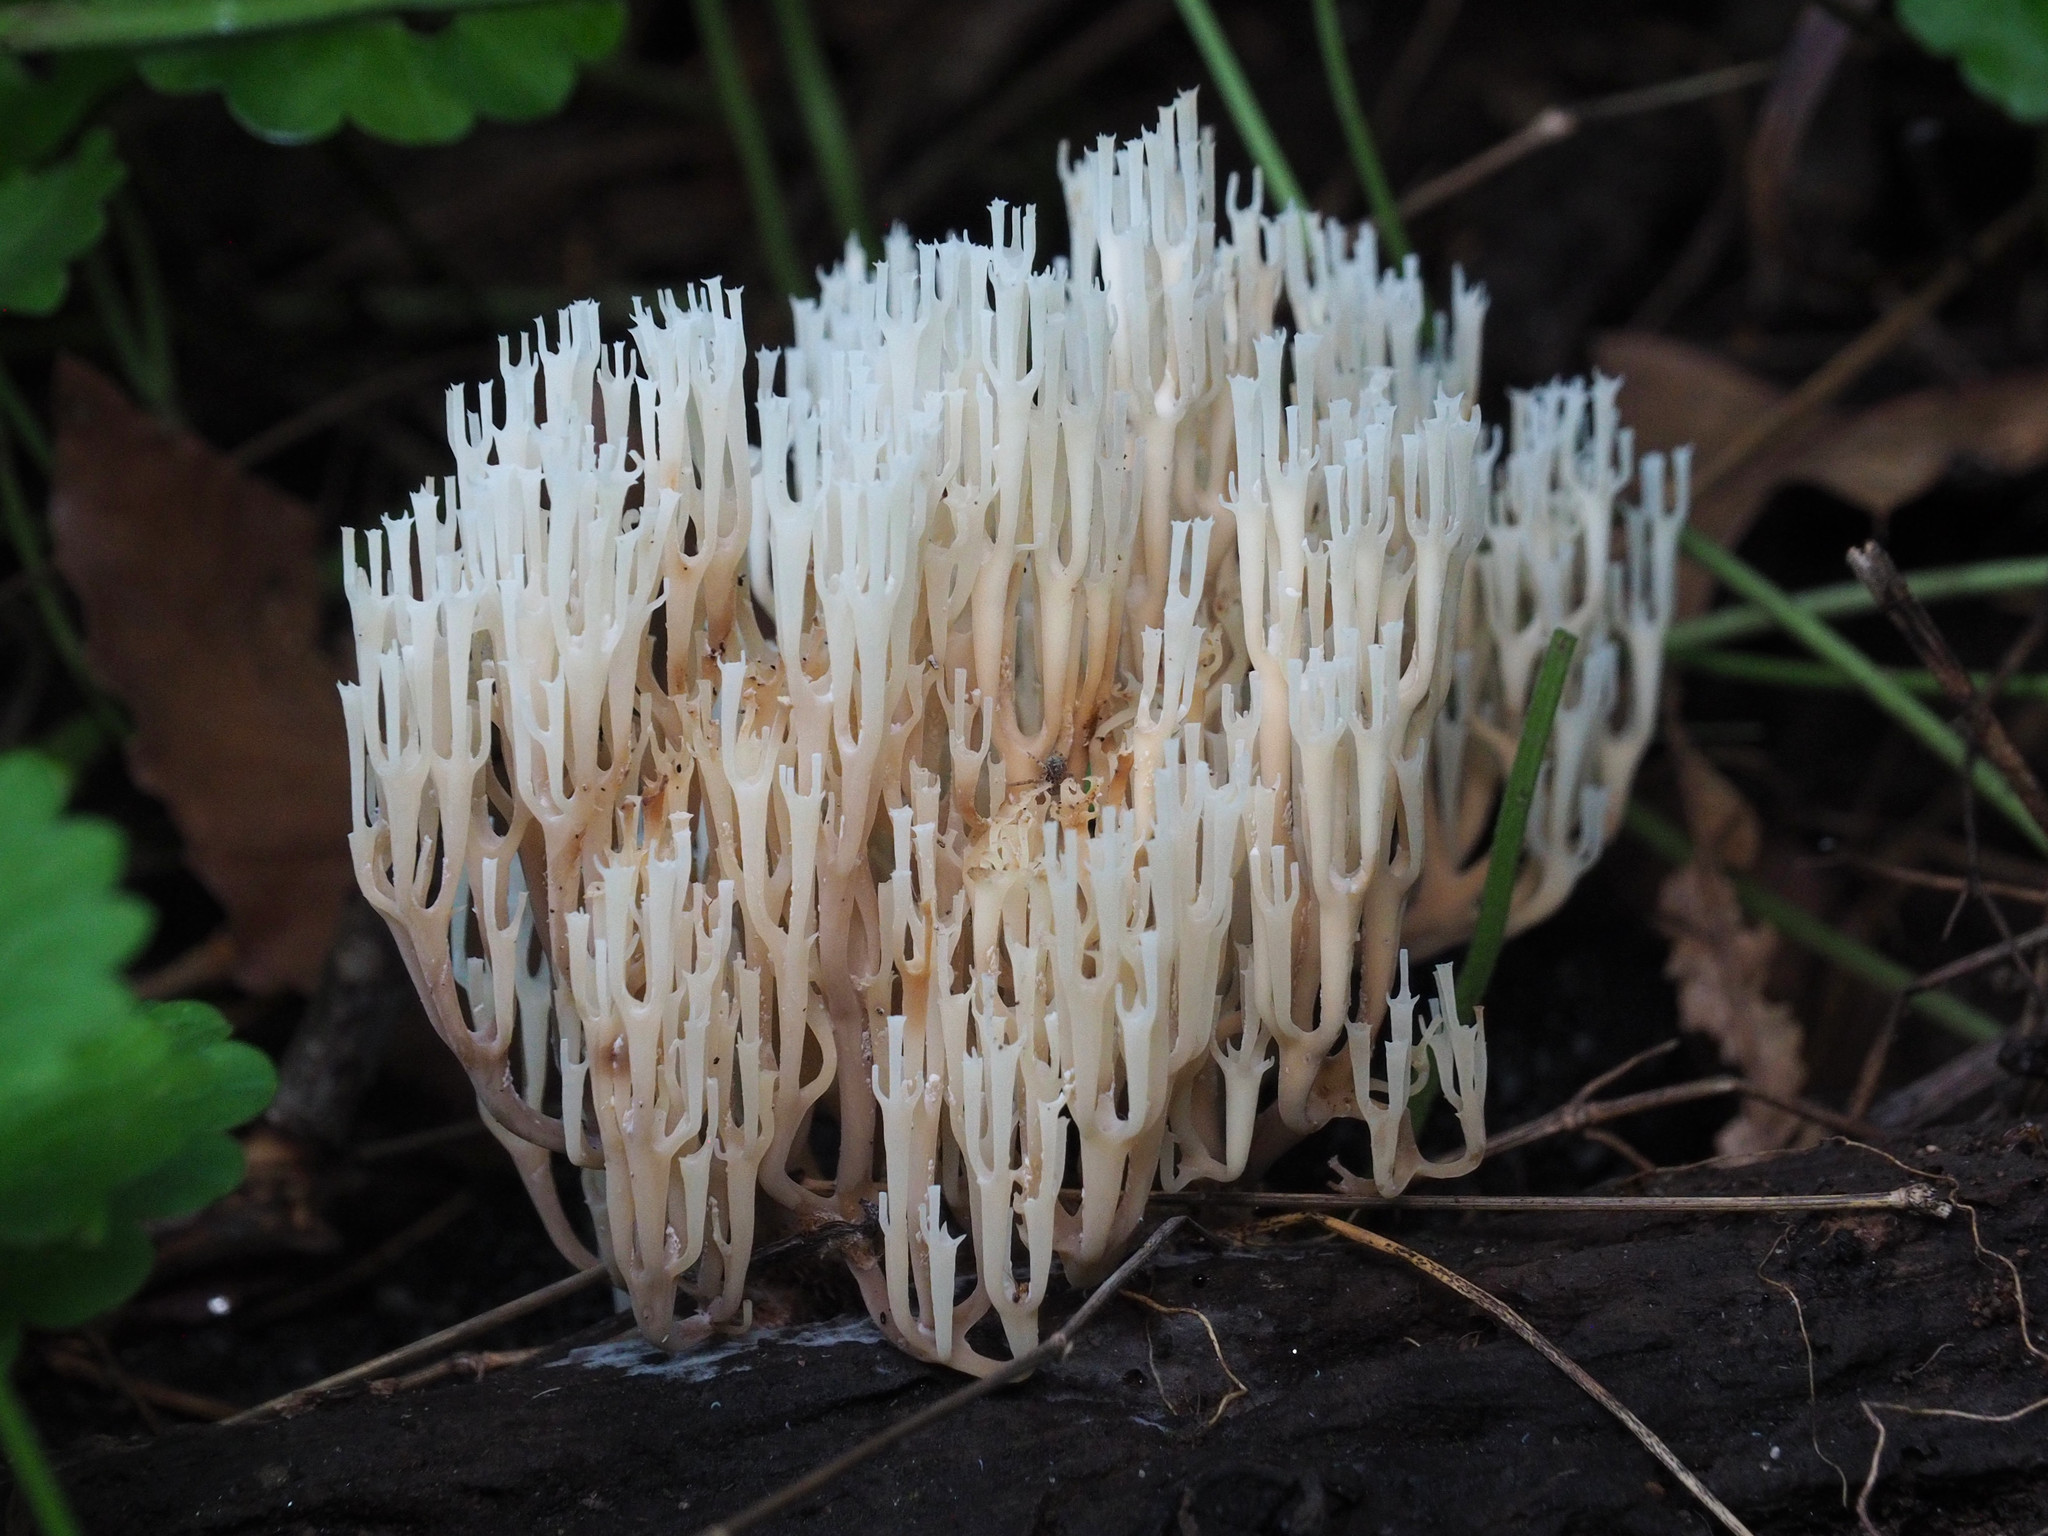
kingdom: Fungi
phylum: Basidiomycota
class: Agaricomycetes
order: Russulales
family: Auriscalpiaceae
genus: Artomyces
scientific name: Artomyces pyxidatus
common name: Crown-tipped coral fungus
